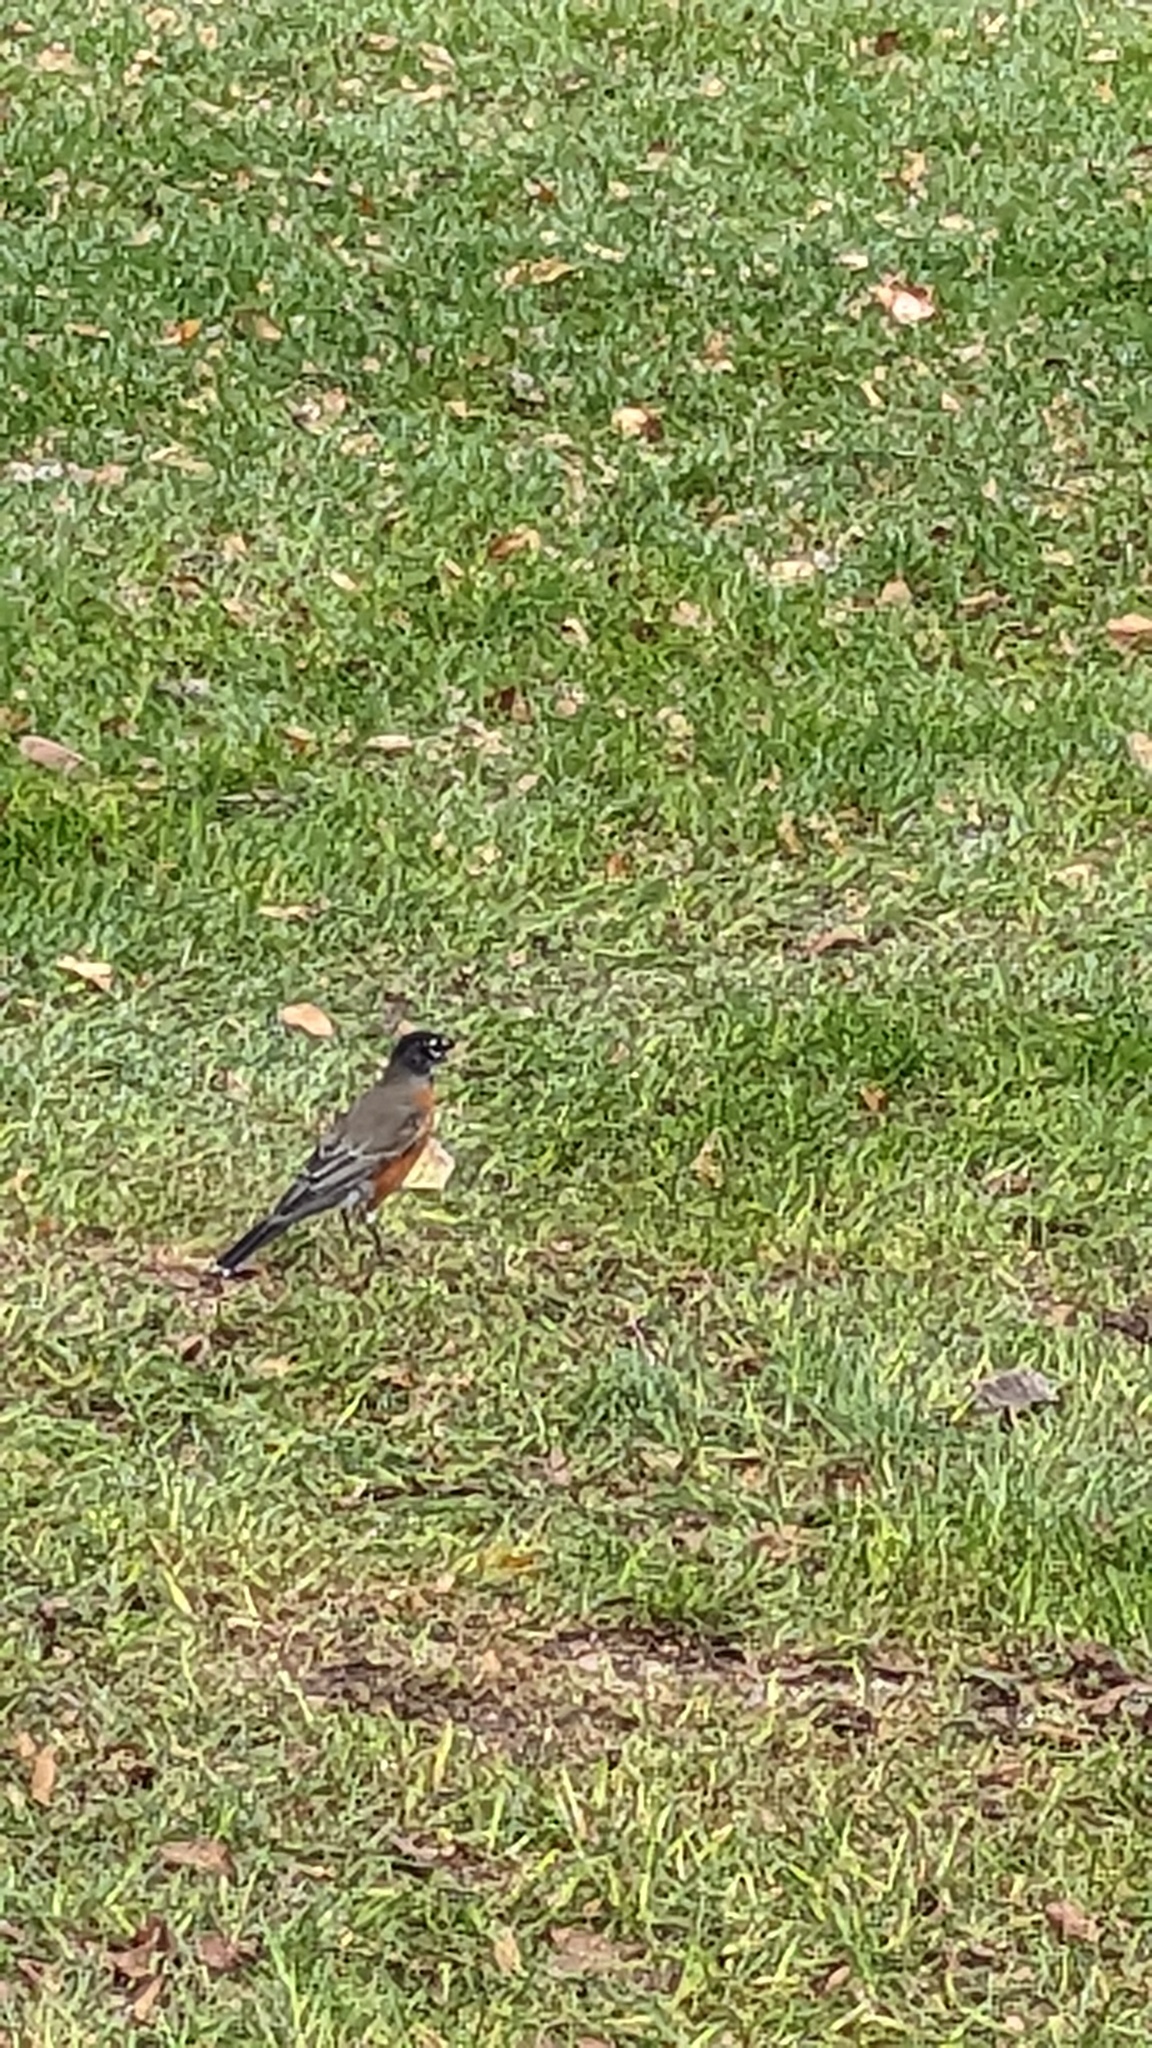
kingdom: Animalia
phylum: Chordata
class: Aves
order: Passeriformes
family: Turdidae
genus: Turdus
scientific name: Turdus migratorius
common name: American robin
